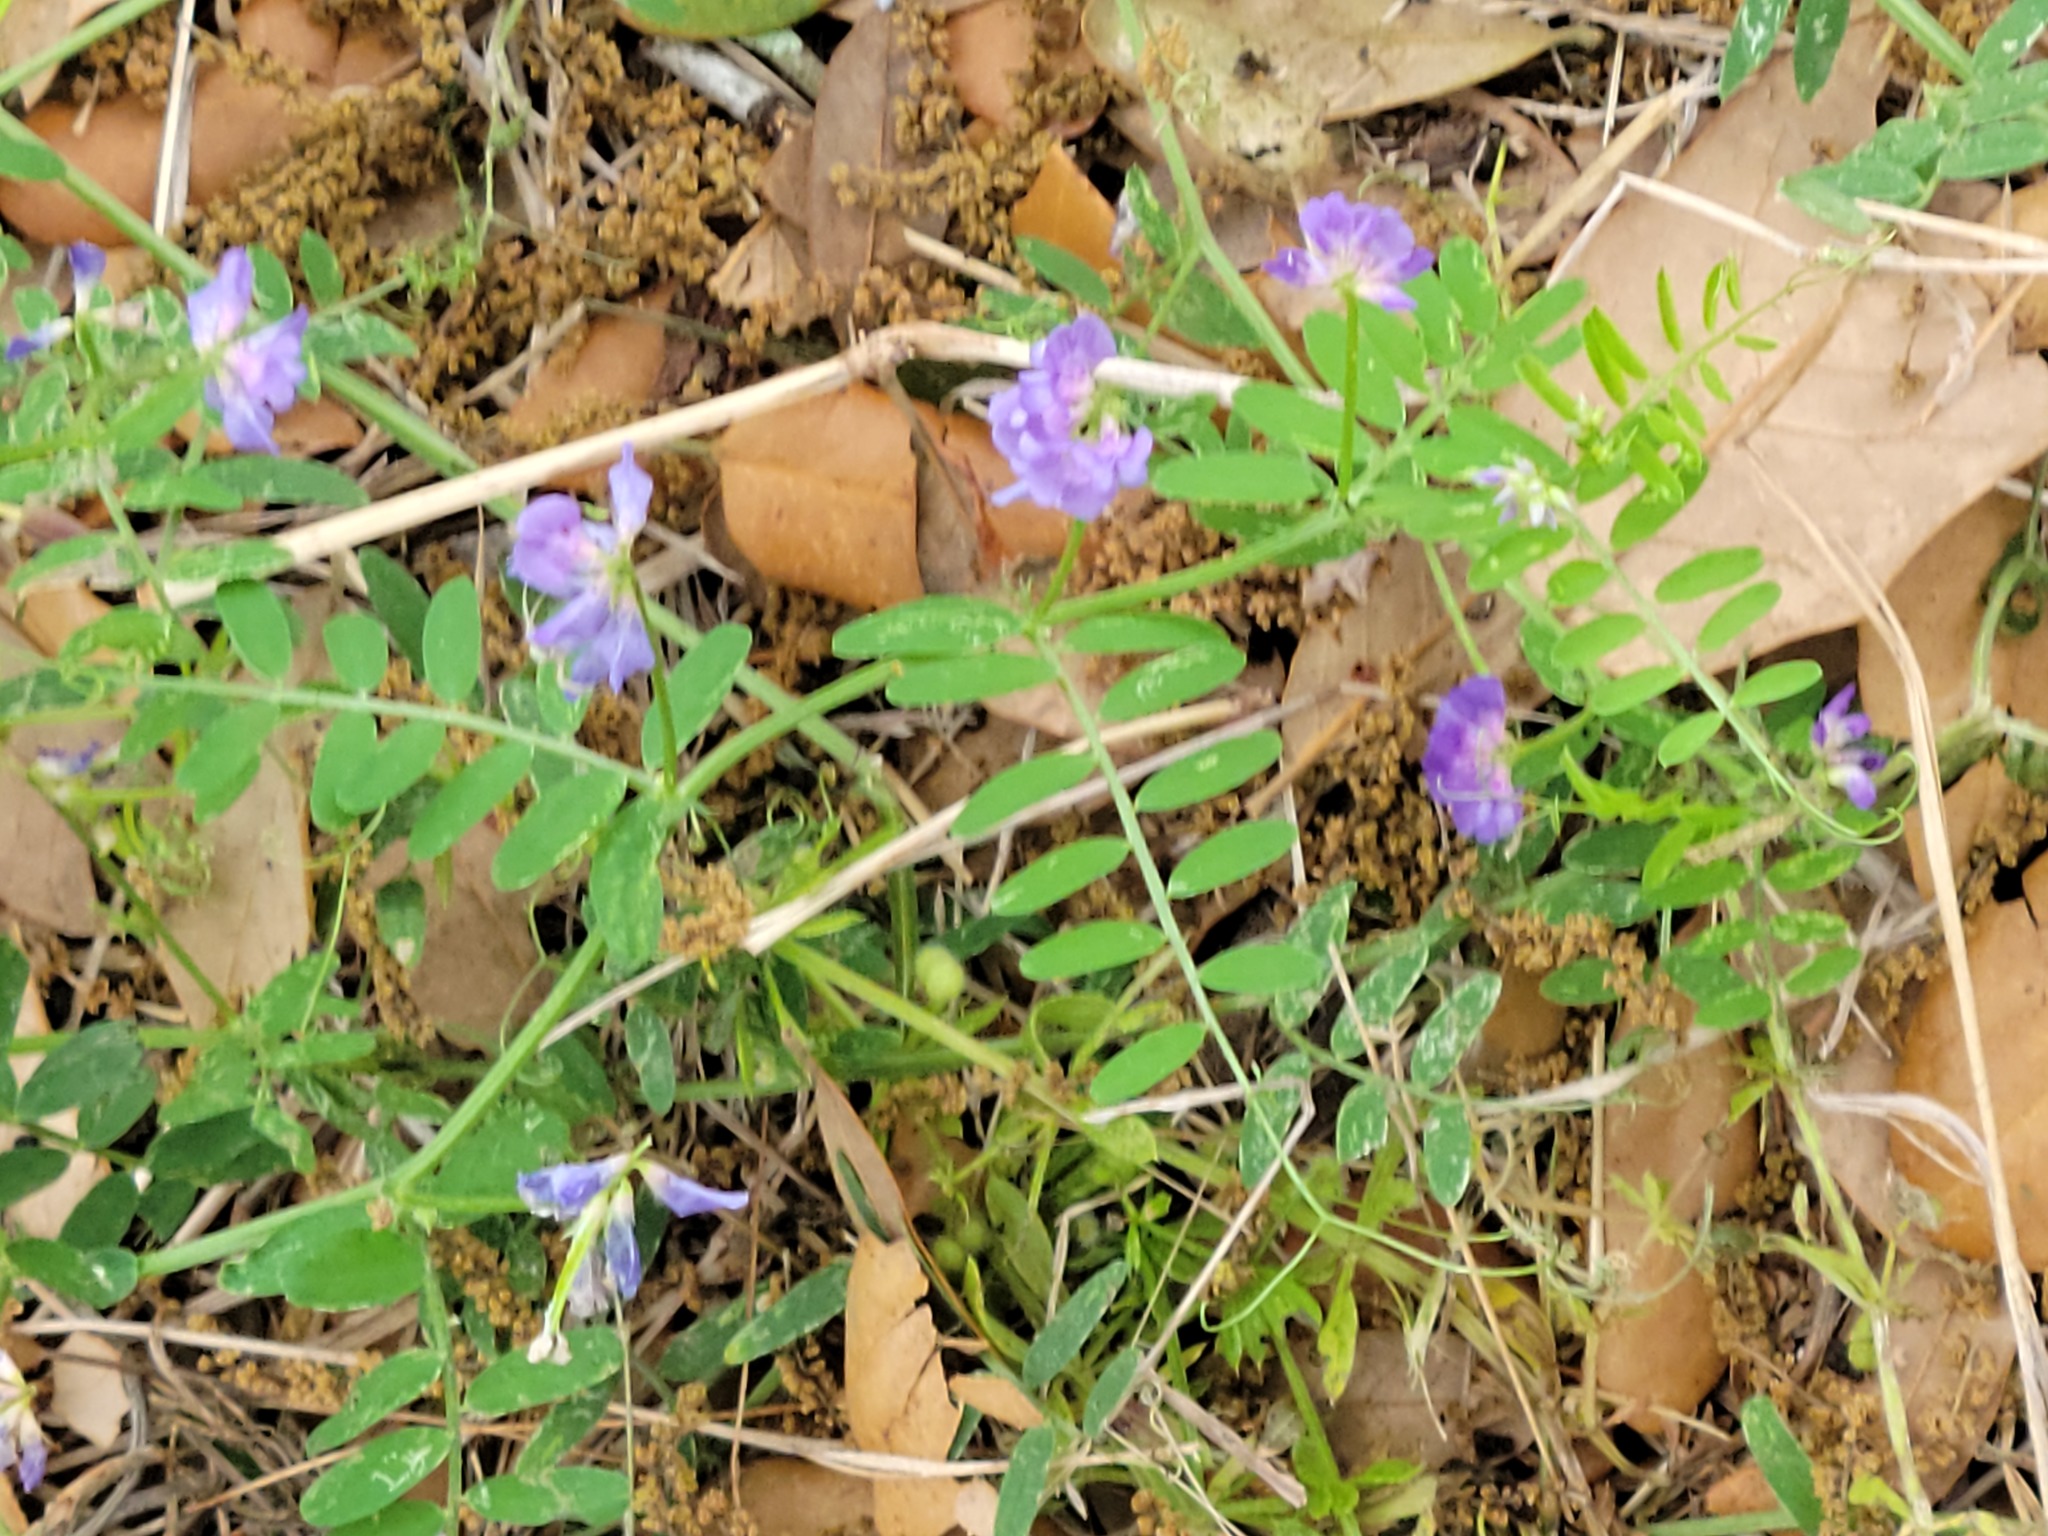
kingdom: Plantae
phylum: Tracheophyta
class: Magnoliopsida
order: Fabales
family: Fabaceae
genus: Vicia
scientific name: Vicia ludoviciana
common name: Louisiana vetch
